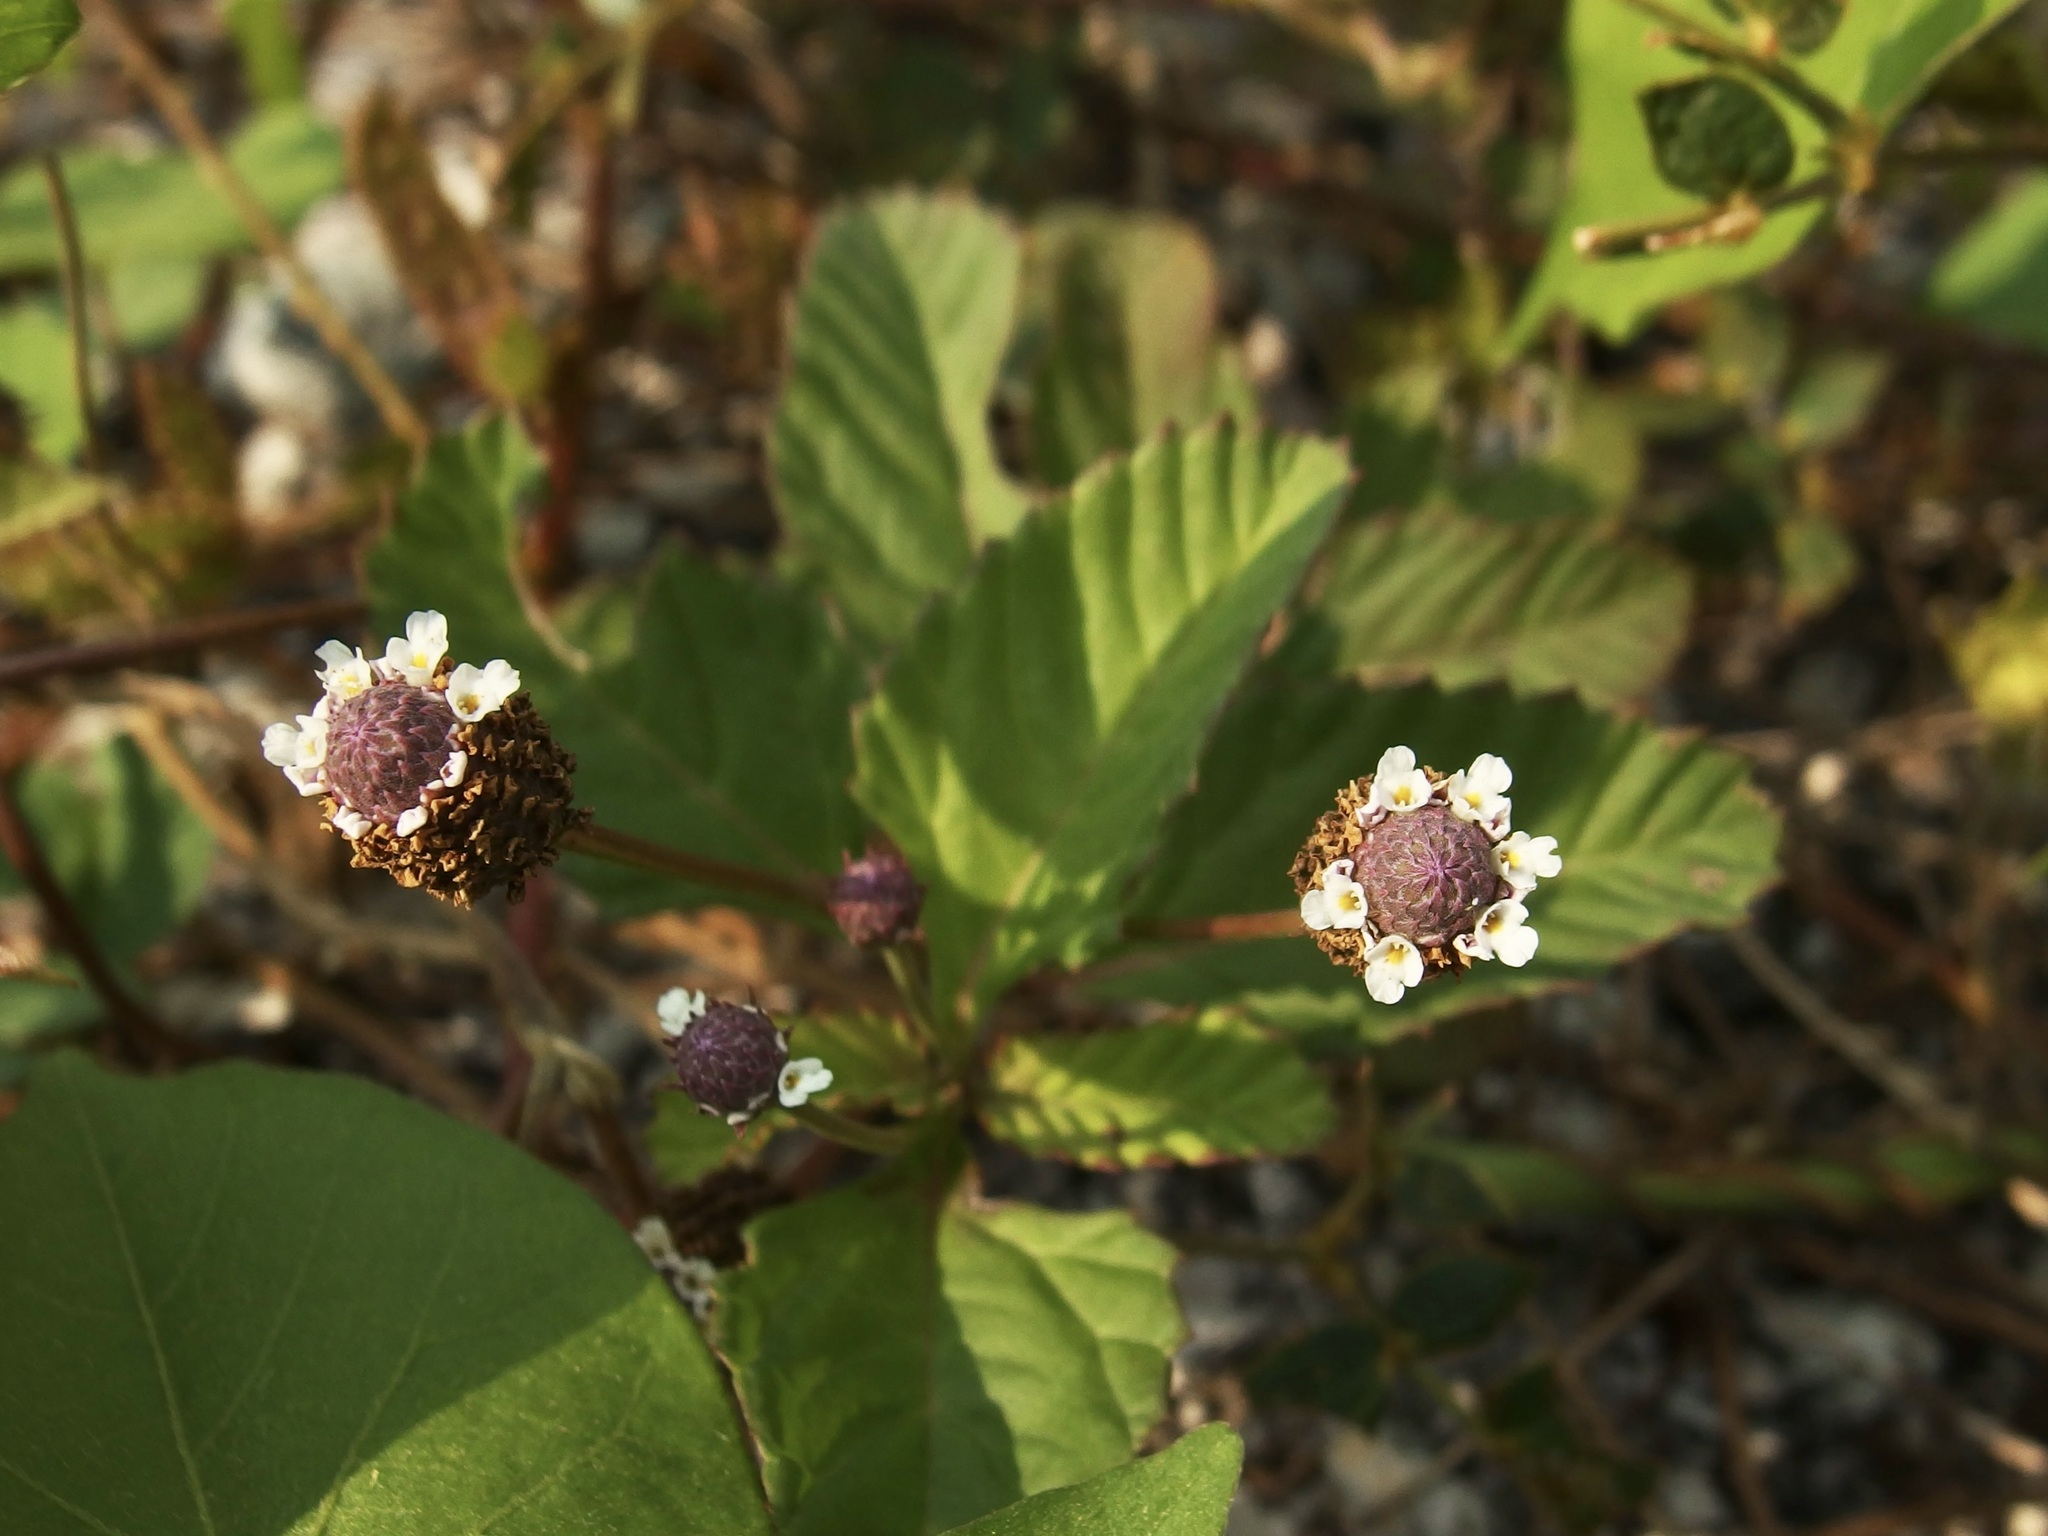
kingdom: Plantae
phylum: Tracheophyta
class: Magnoliopsida
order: Lamiales
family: Verbenaceae
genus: Phyla
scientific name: Phyla nodiflora
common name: Frogfruit
